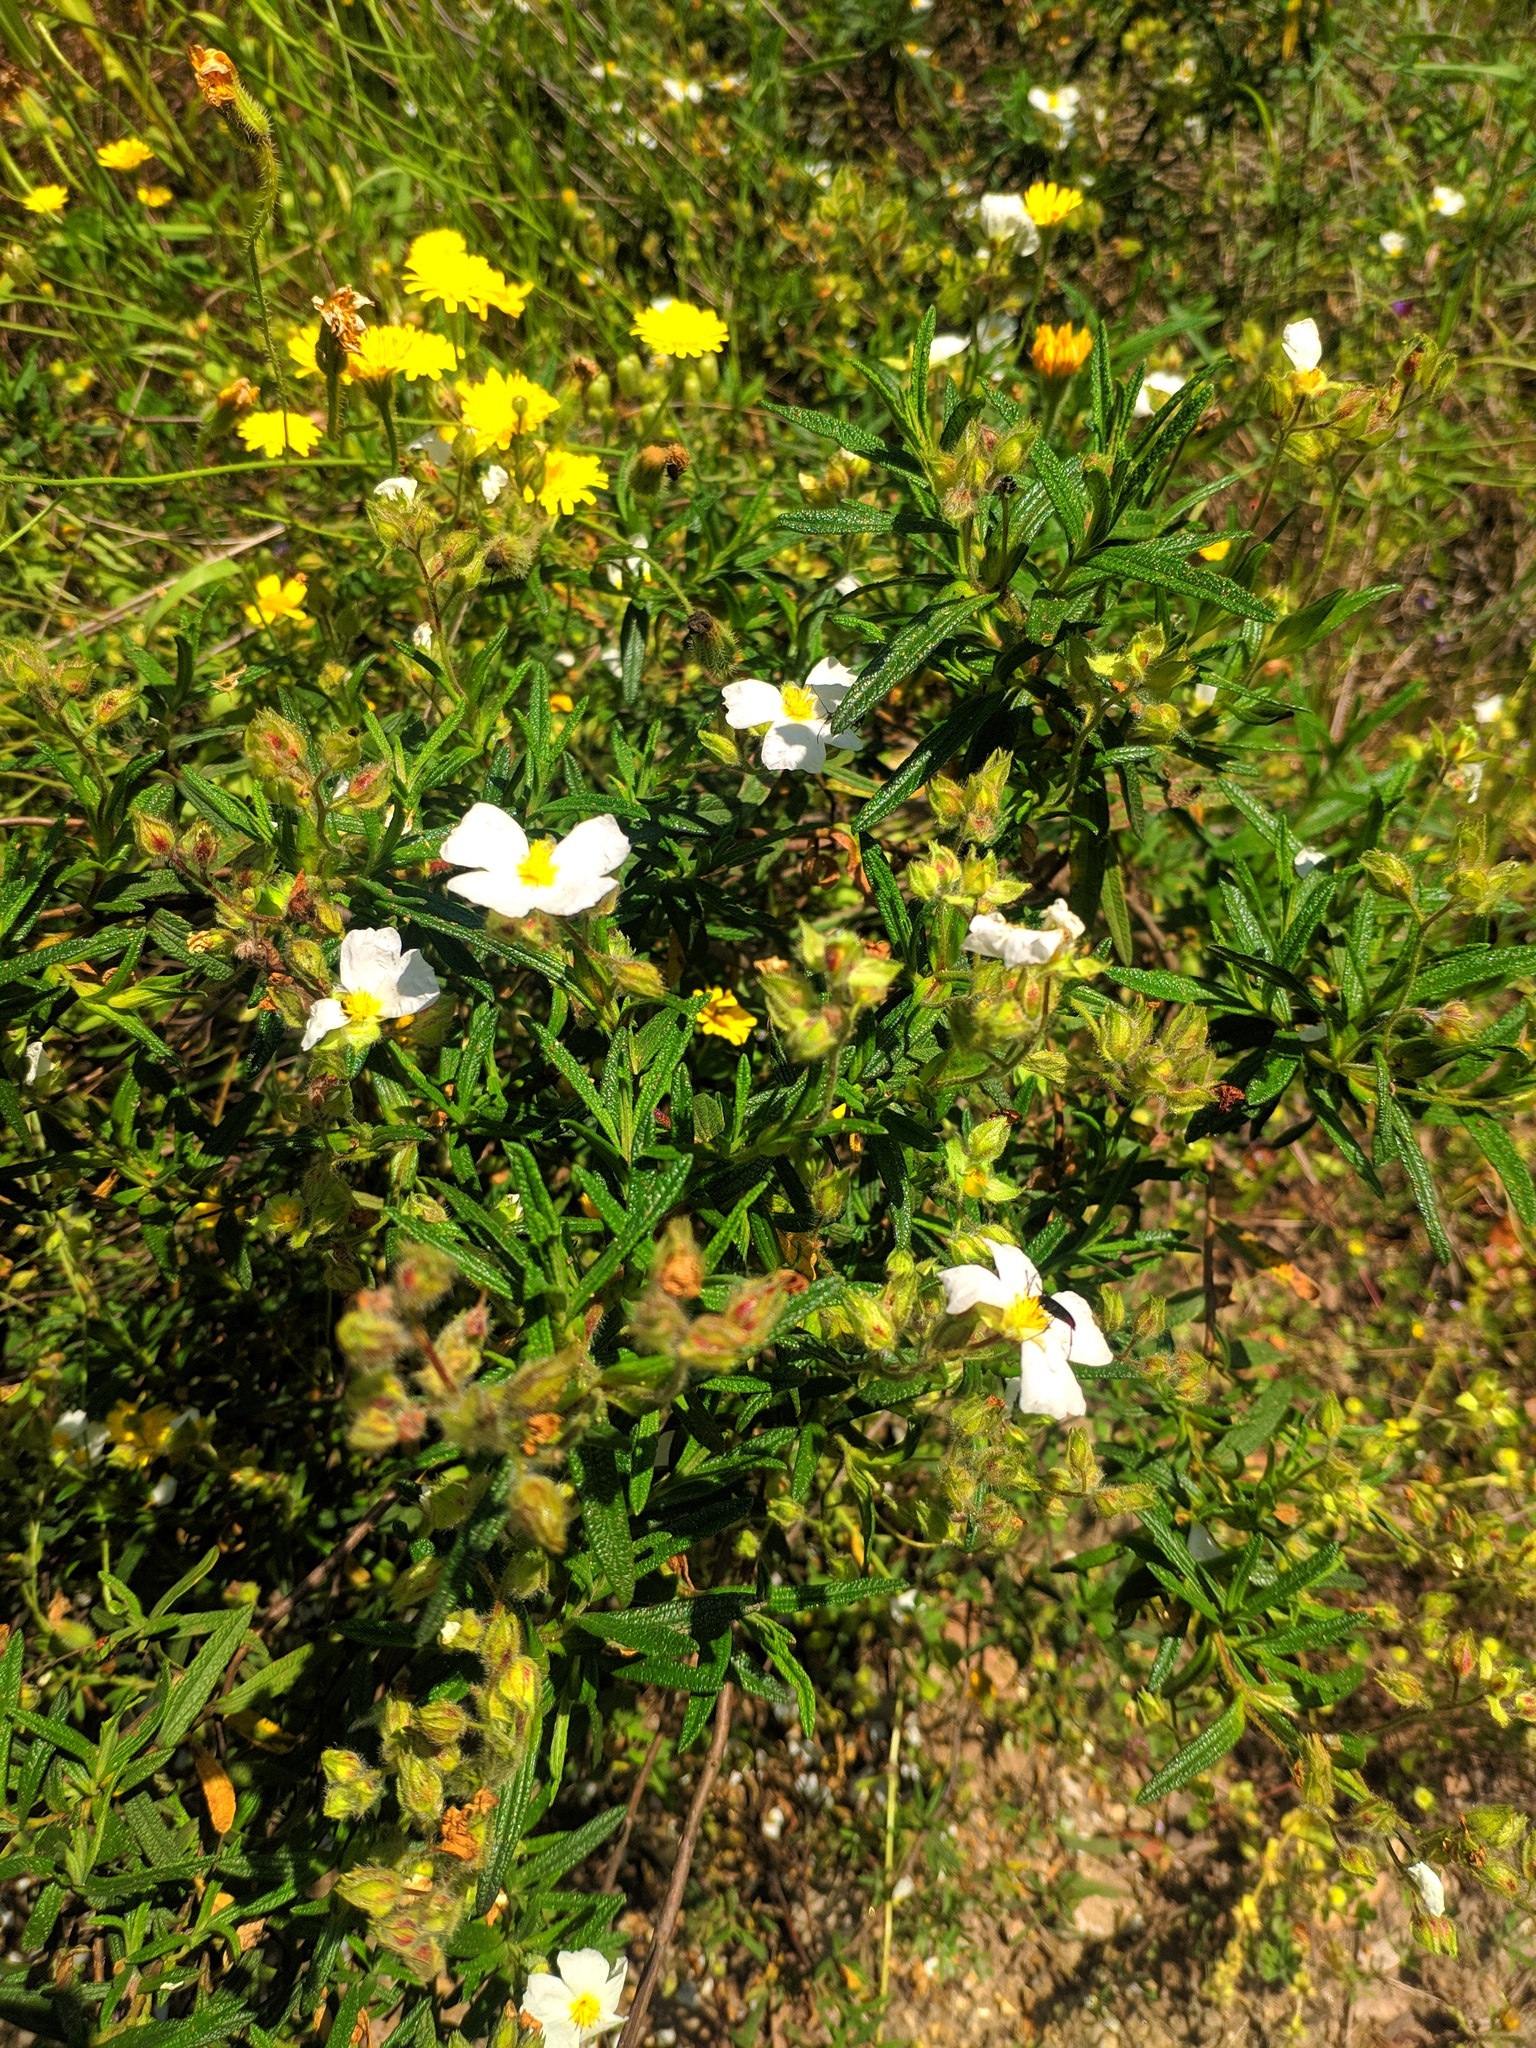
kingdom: Plantae
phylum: Tracheophyta
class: Magnoliopsida
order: Malvales
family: Cistaceae
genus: Cistus
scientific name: Cistus monspeliensis
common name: Montpelier cistus
